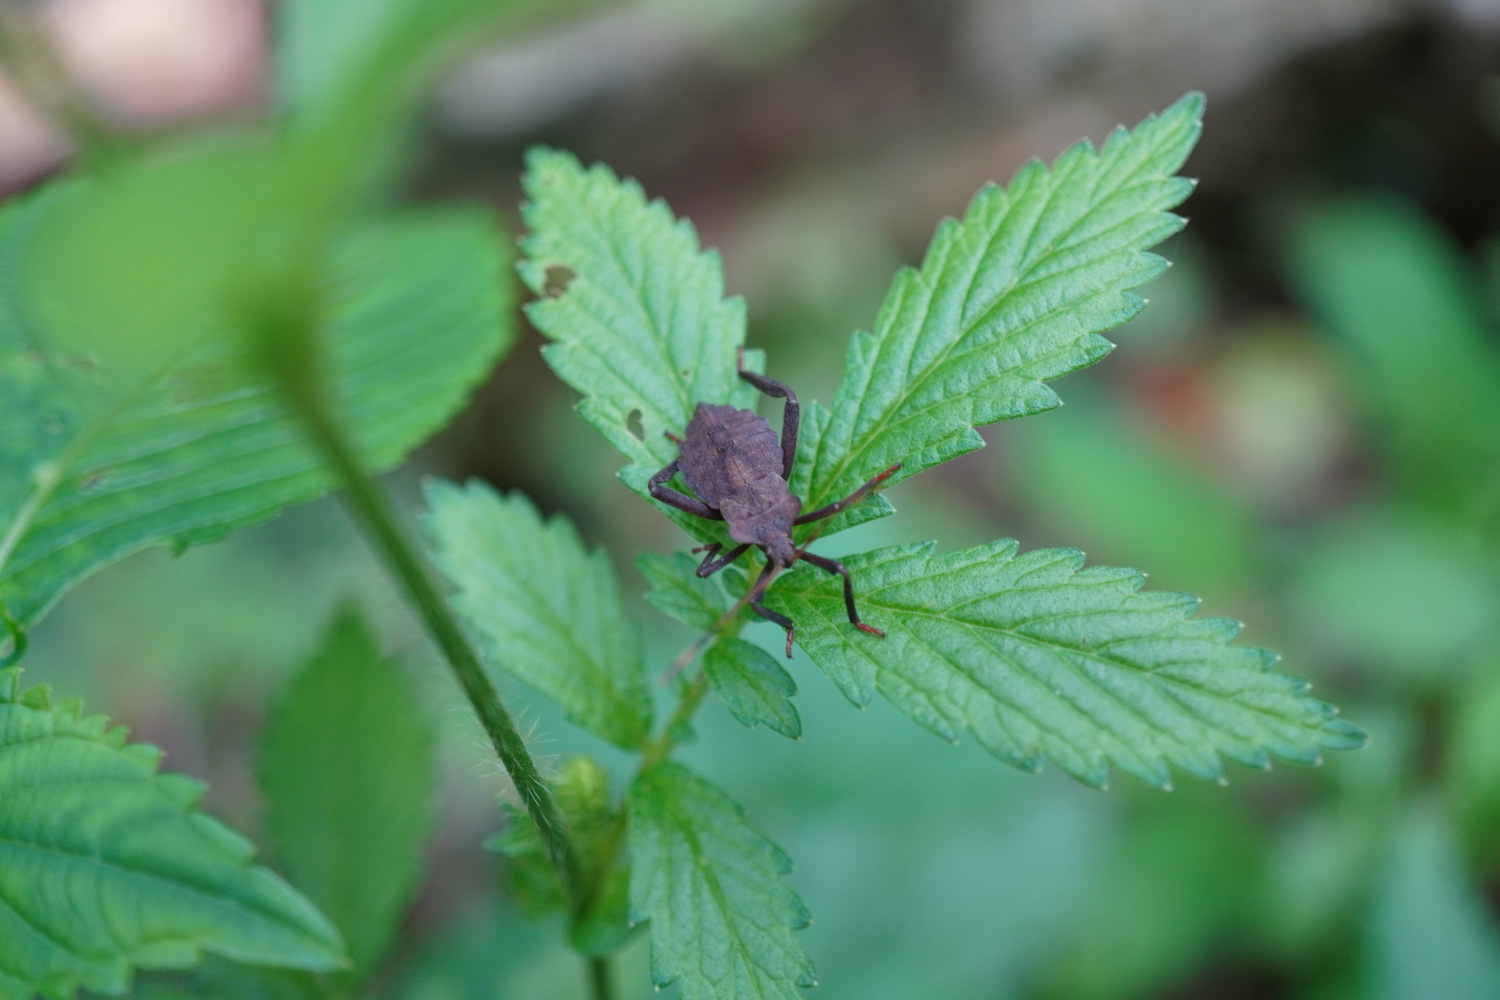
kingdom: Animalia
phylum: Arthropoda
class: Insecta
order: Hemiptera
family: Coreidae
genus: Molipteryx
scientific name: Molipteryx fuliginosa
